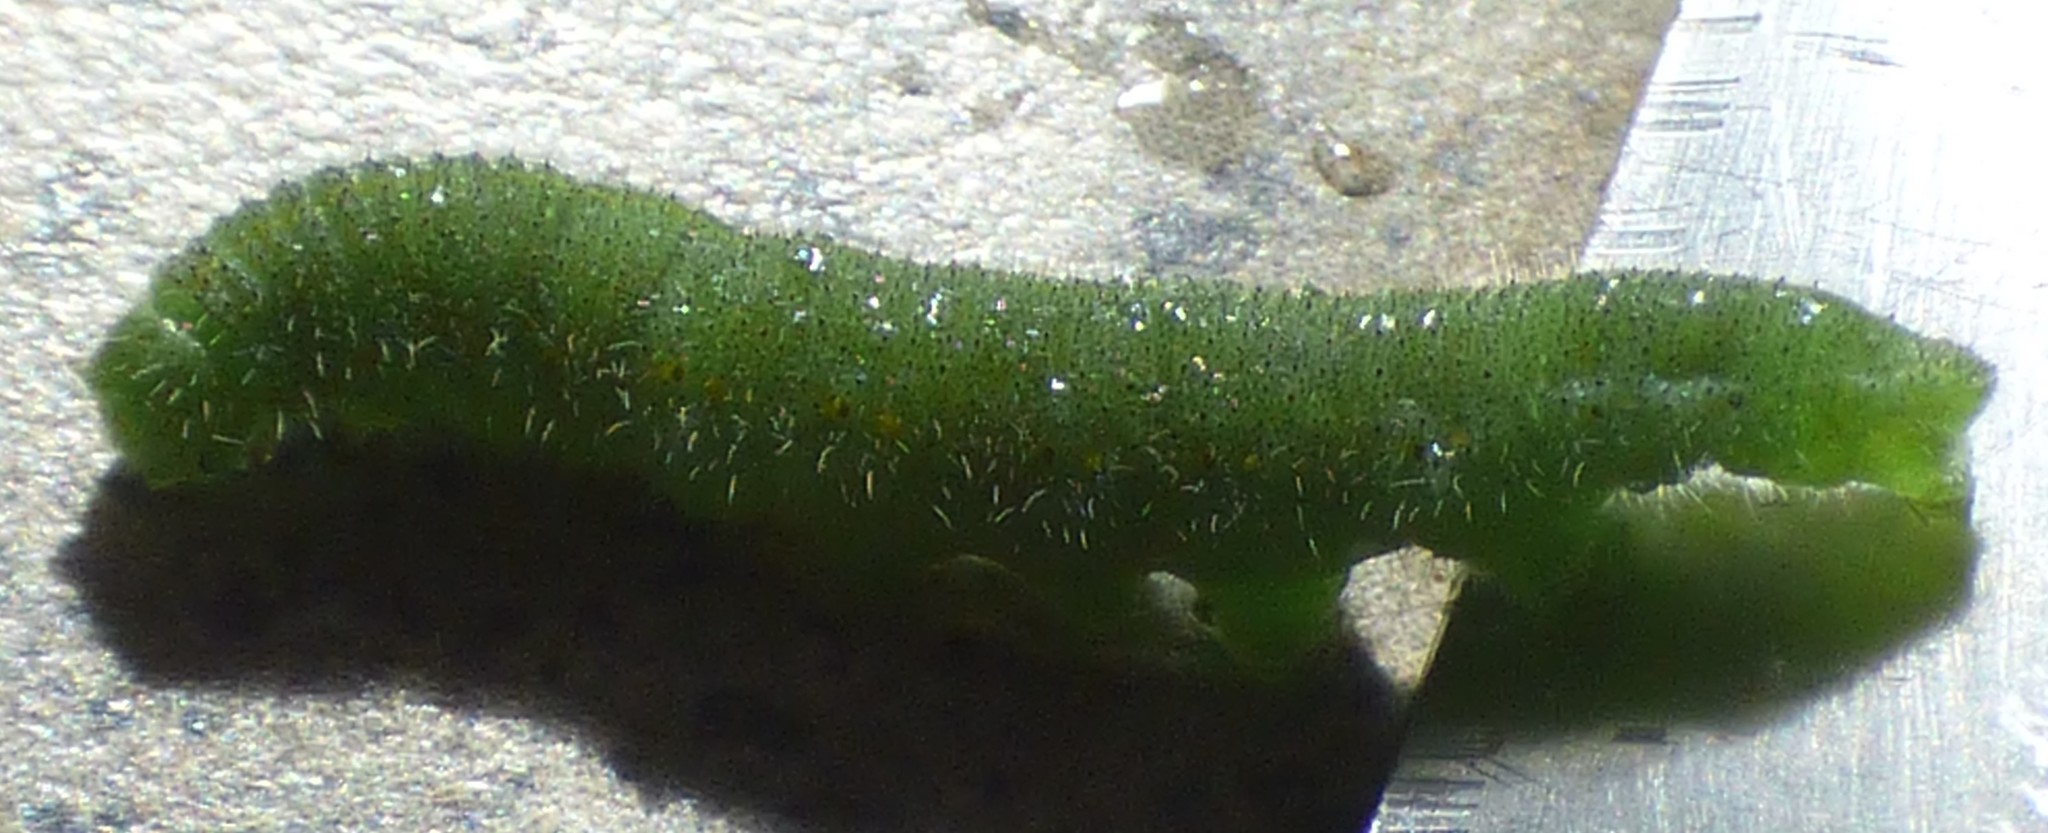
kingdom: Animalia
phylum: Arthropoda
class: Insecta
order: Lepidoptera
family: Pieridae
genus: Pieris
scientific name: Pieris rapae
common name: Small white
